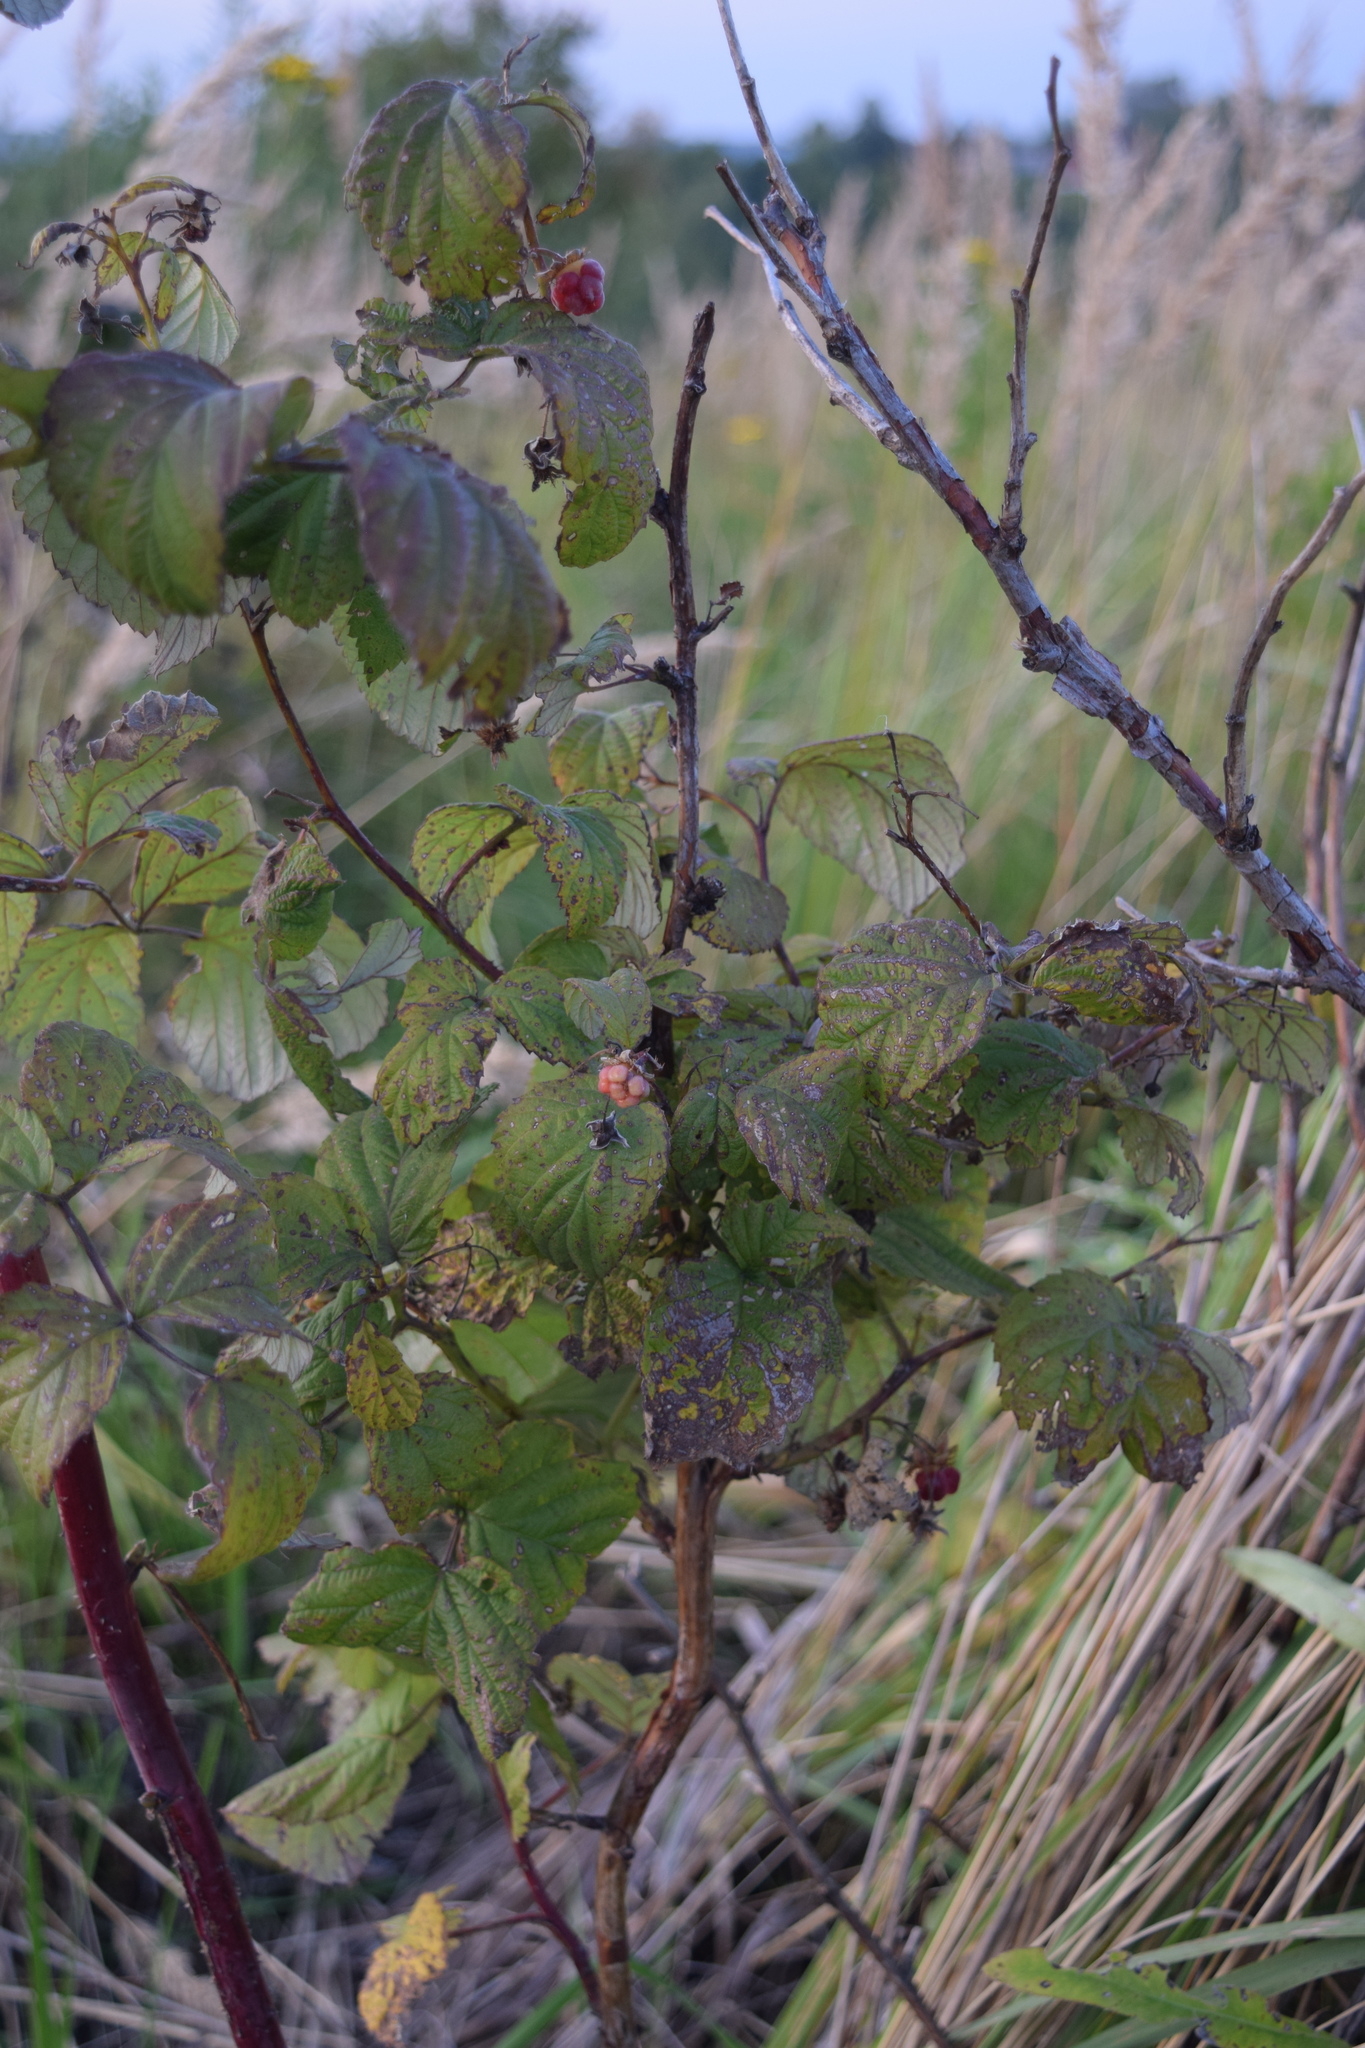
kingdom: Plantae
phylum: Tracheophyta
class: Magnoliopsida
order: Rosales
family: Rosaceae
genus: Rubus
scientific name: Rubus idaeus
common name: Raspberry
